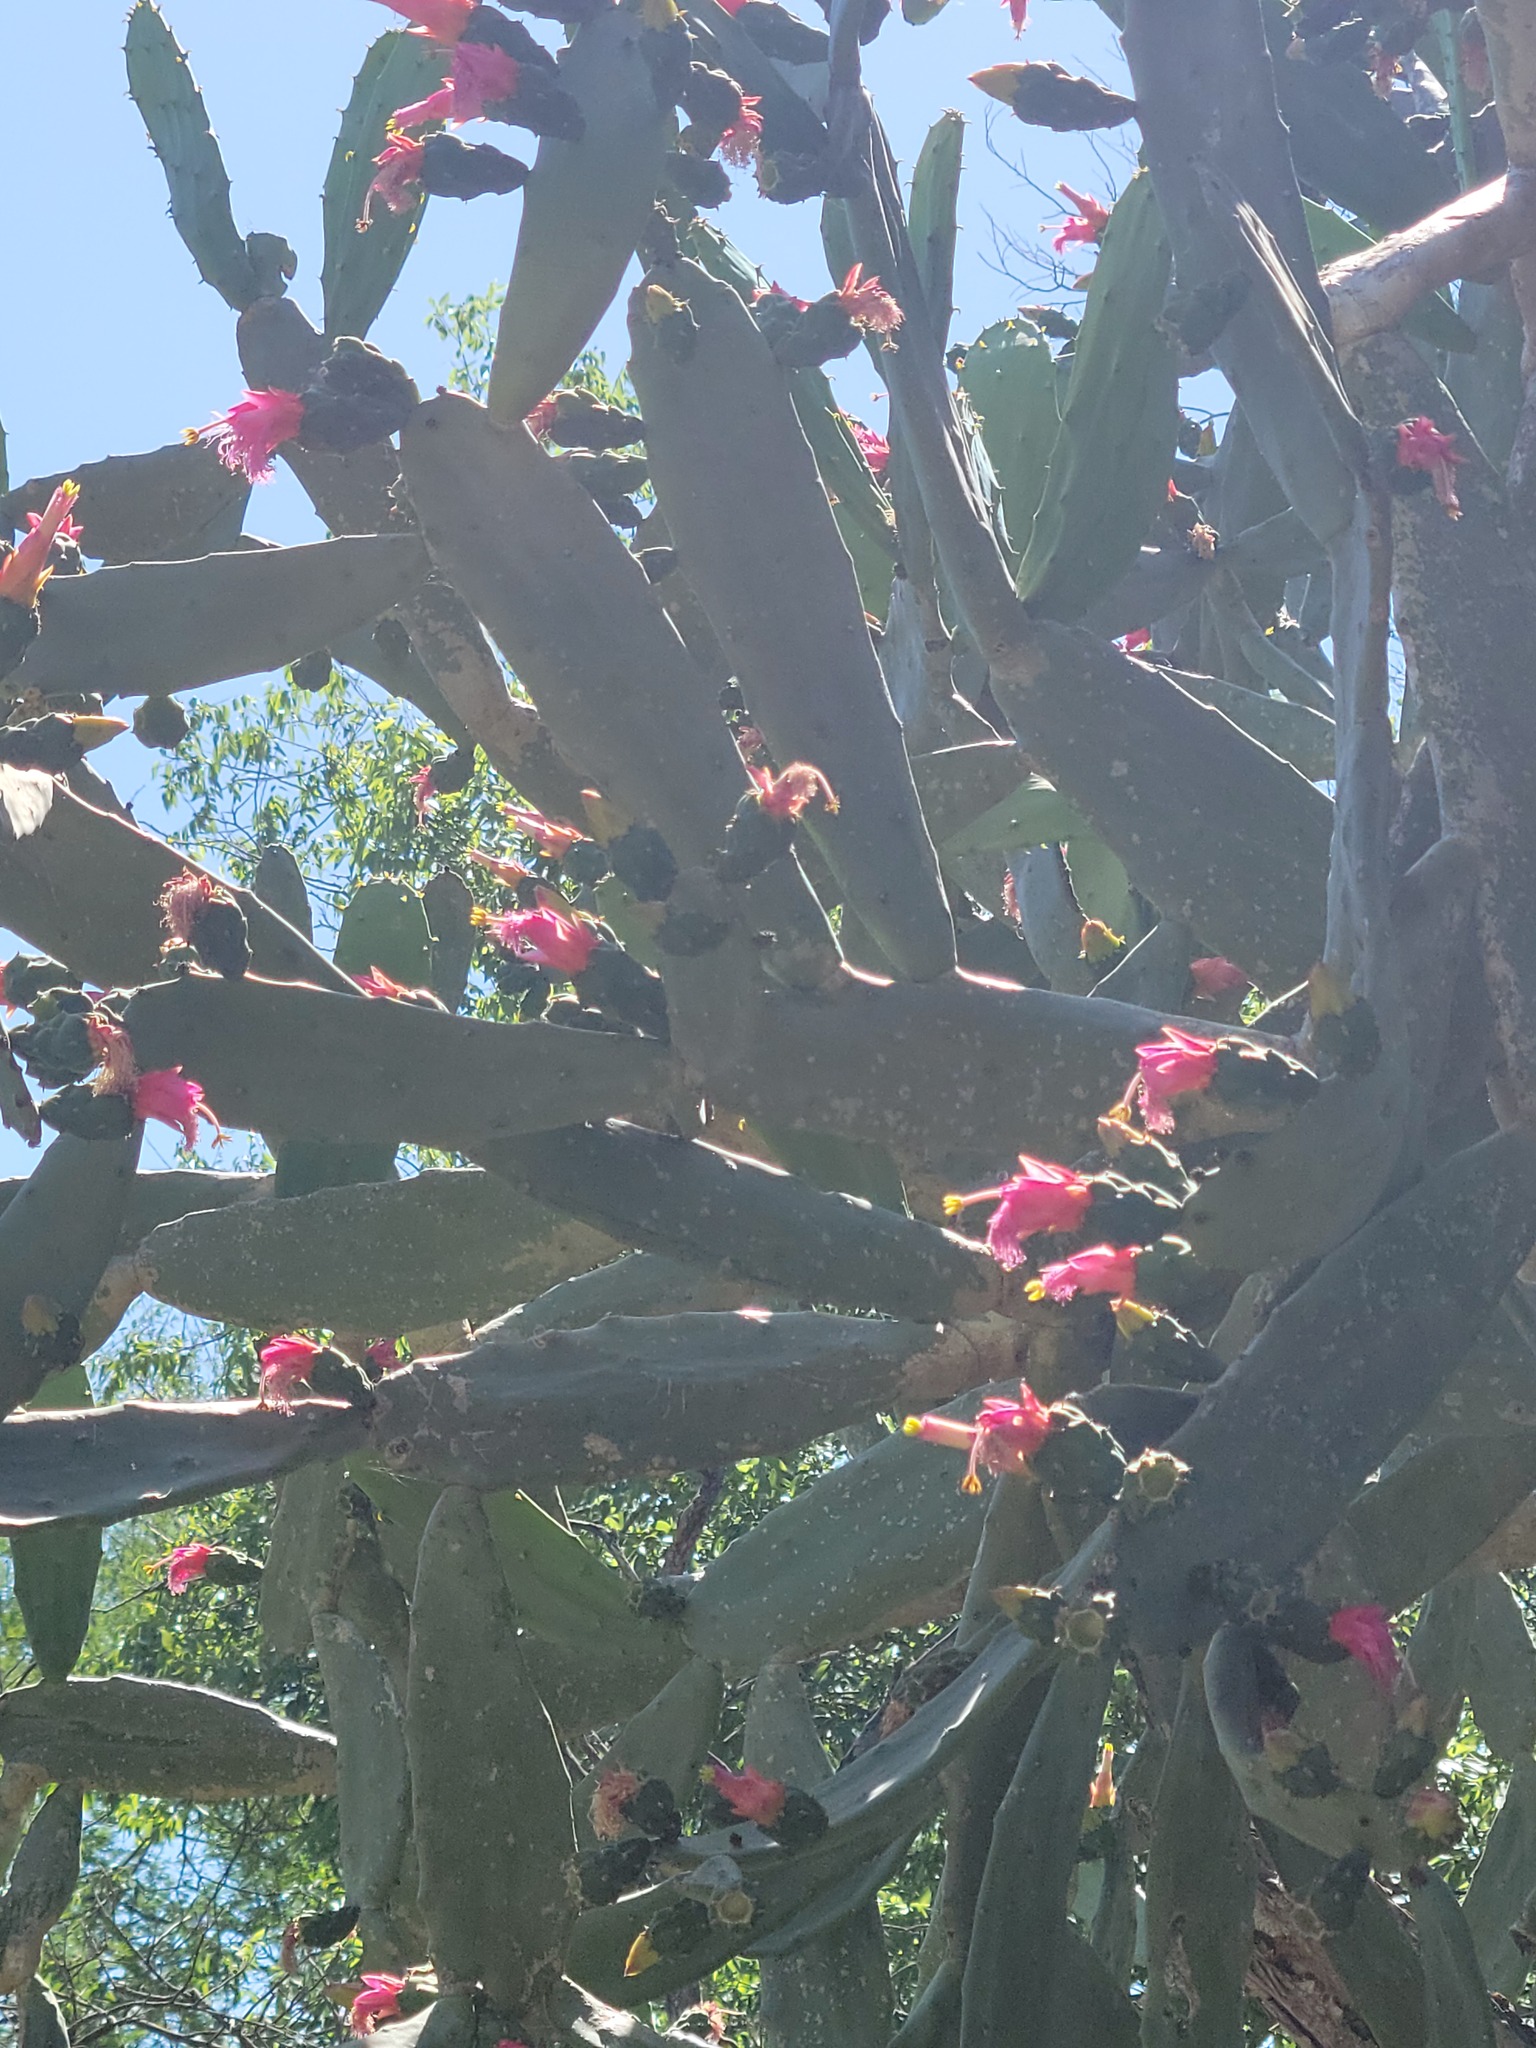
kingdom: Plantae
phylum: Tracheophyta
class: Magnoliopsida
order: Caryophyllales
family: Cactaceae
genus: Opuntia
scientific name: Opuntia cochenillifera
